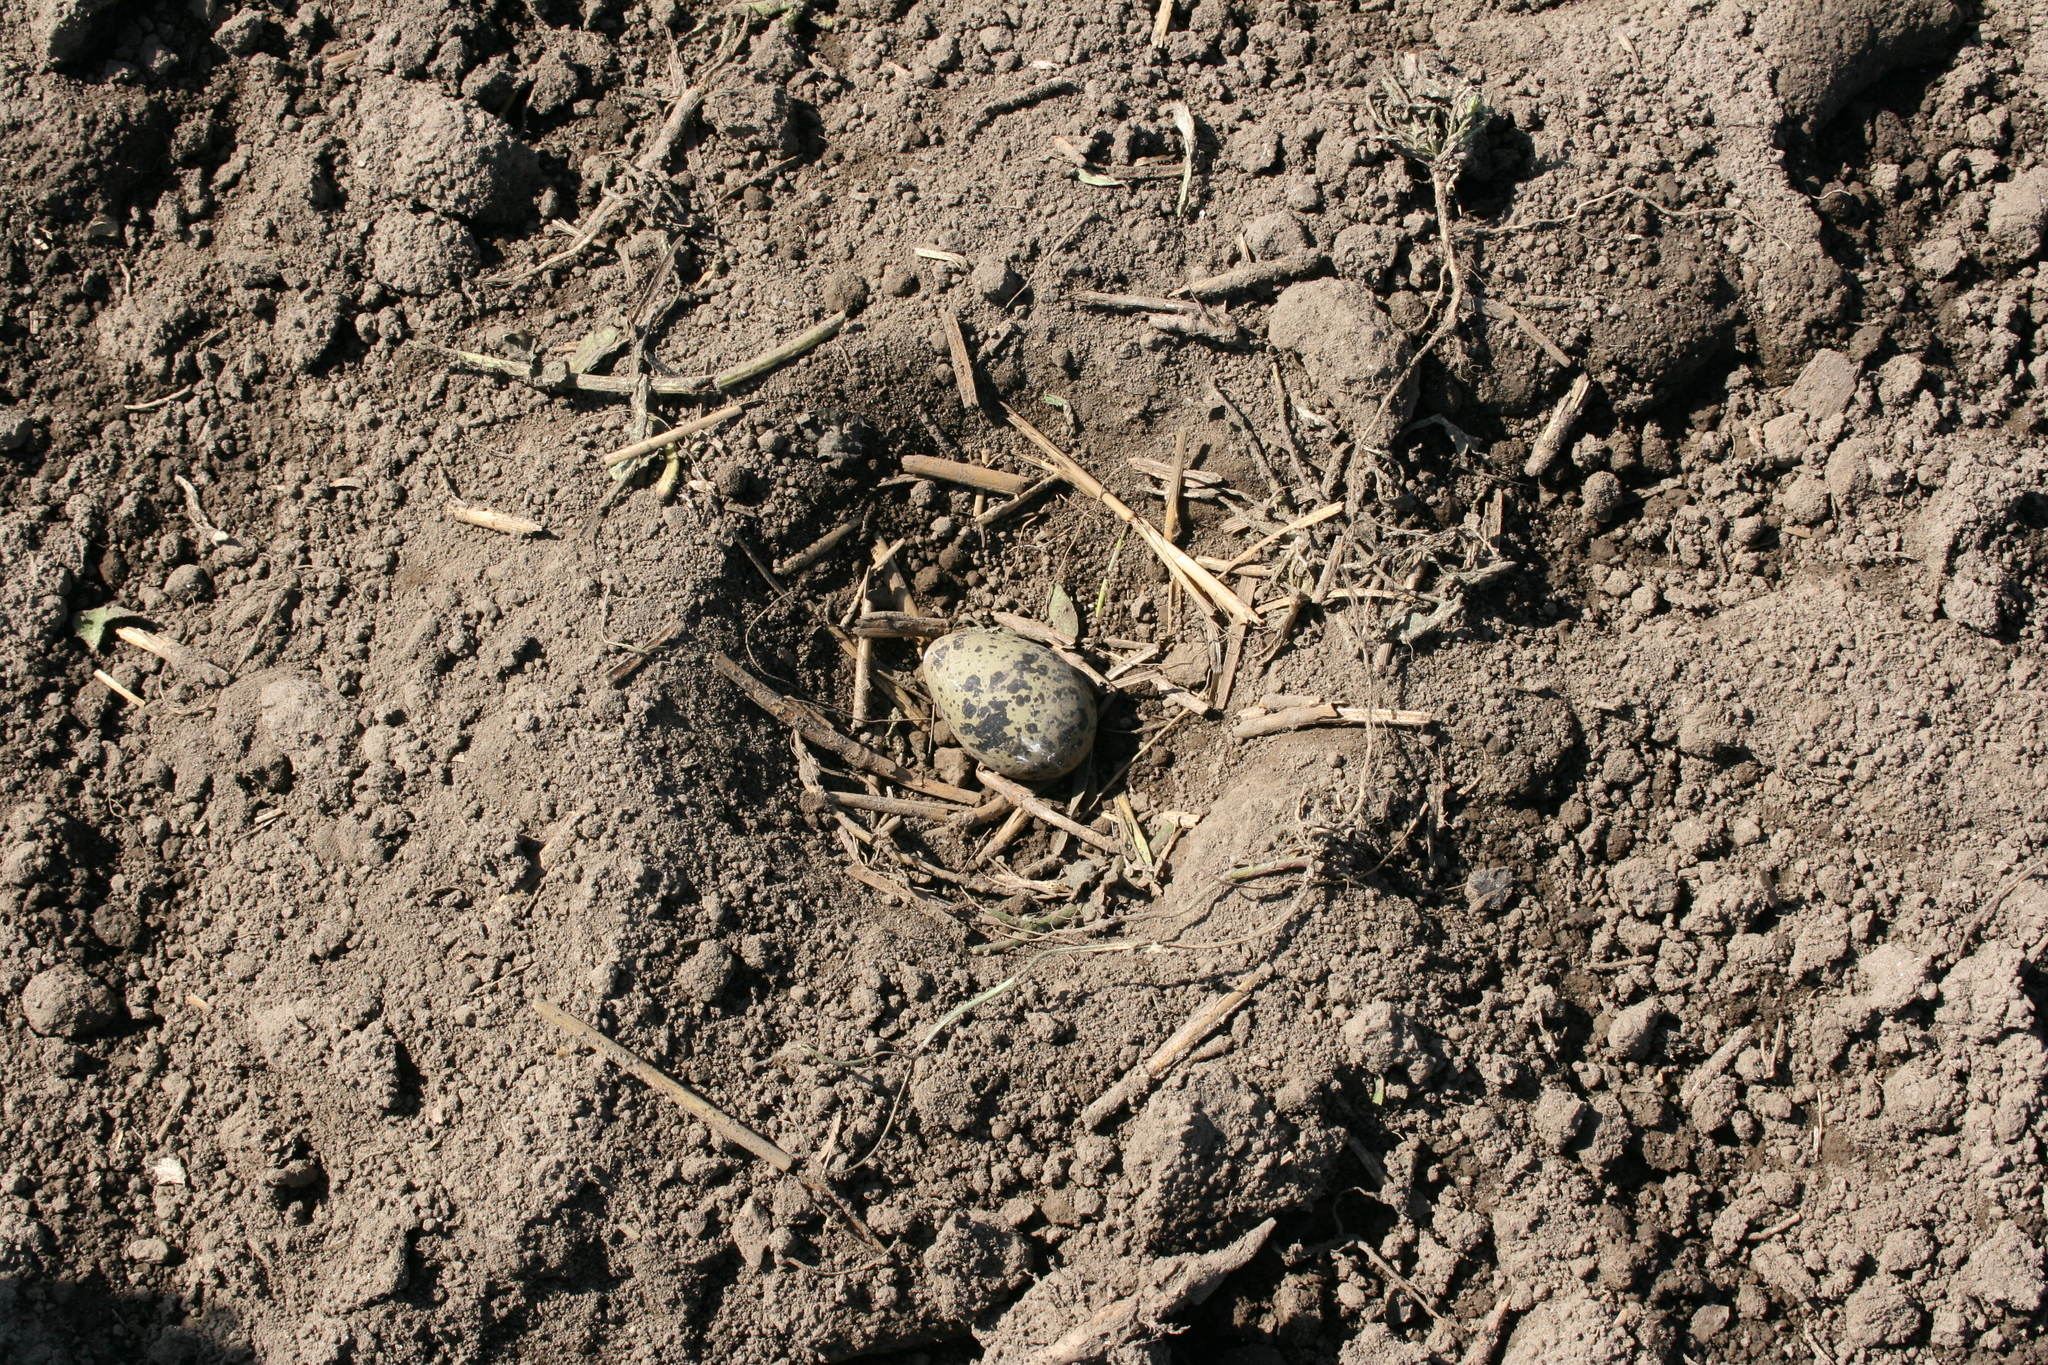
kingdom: Animalia
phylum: Chordata
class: Aves
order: Charadriiformes
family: Charadriidae
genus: Vanellus
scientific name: Vanellus vanellus
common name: Northern lapwing
